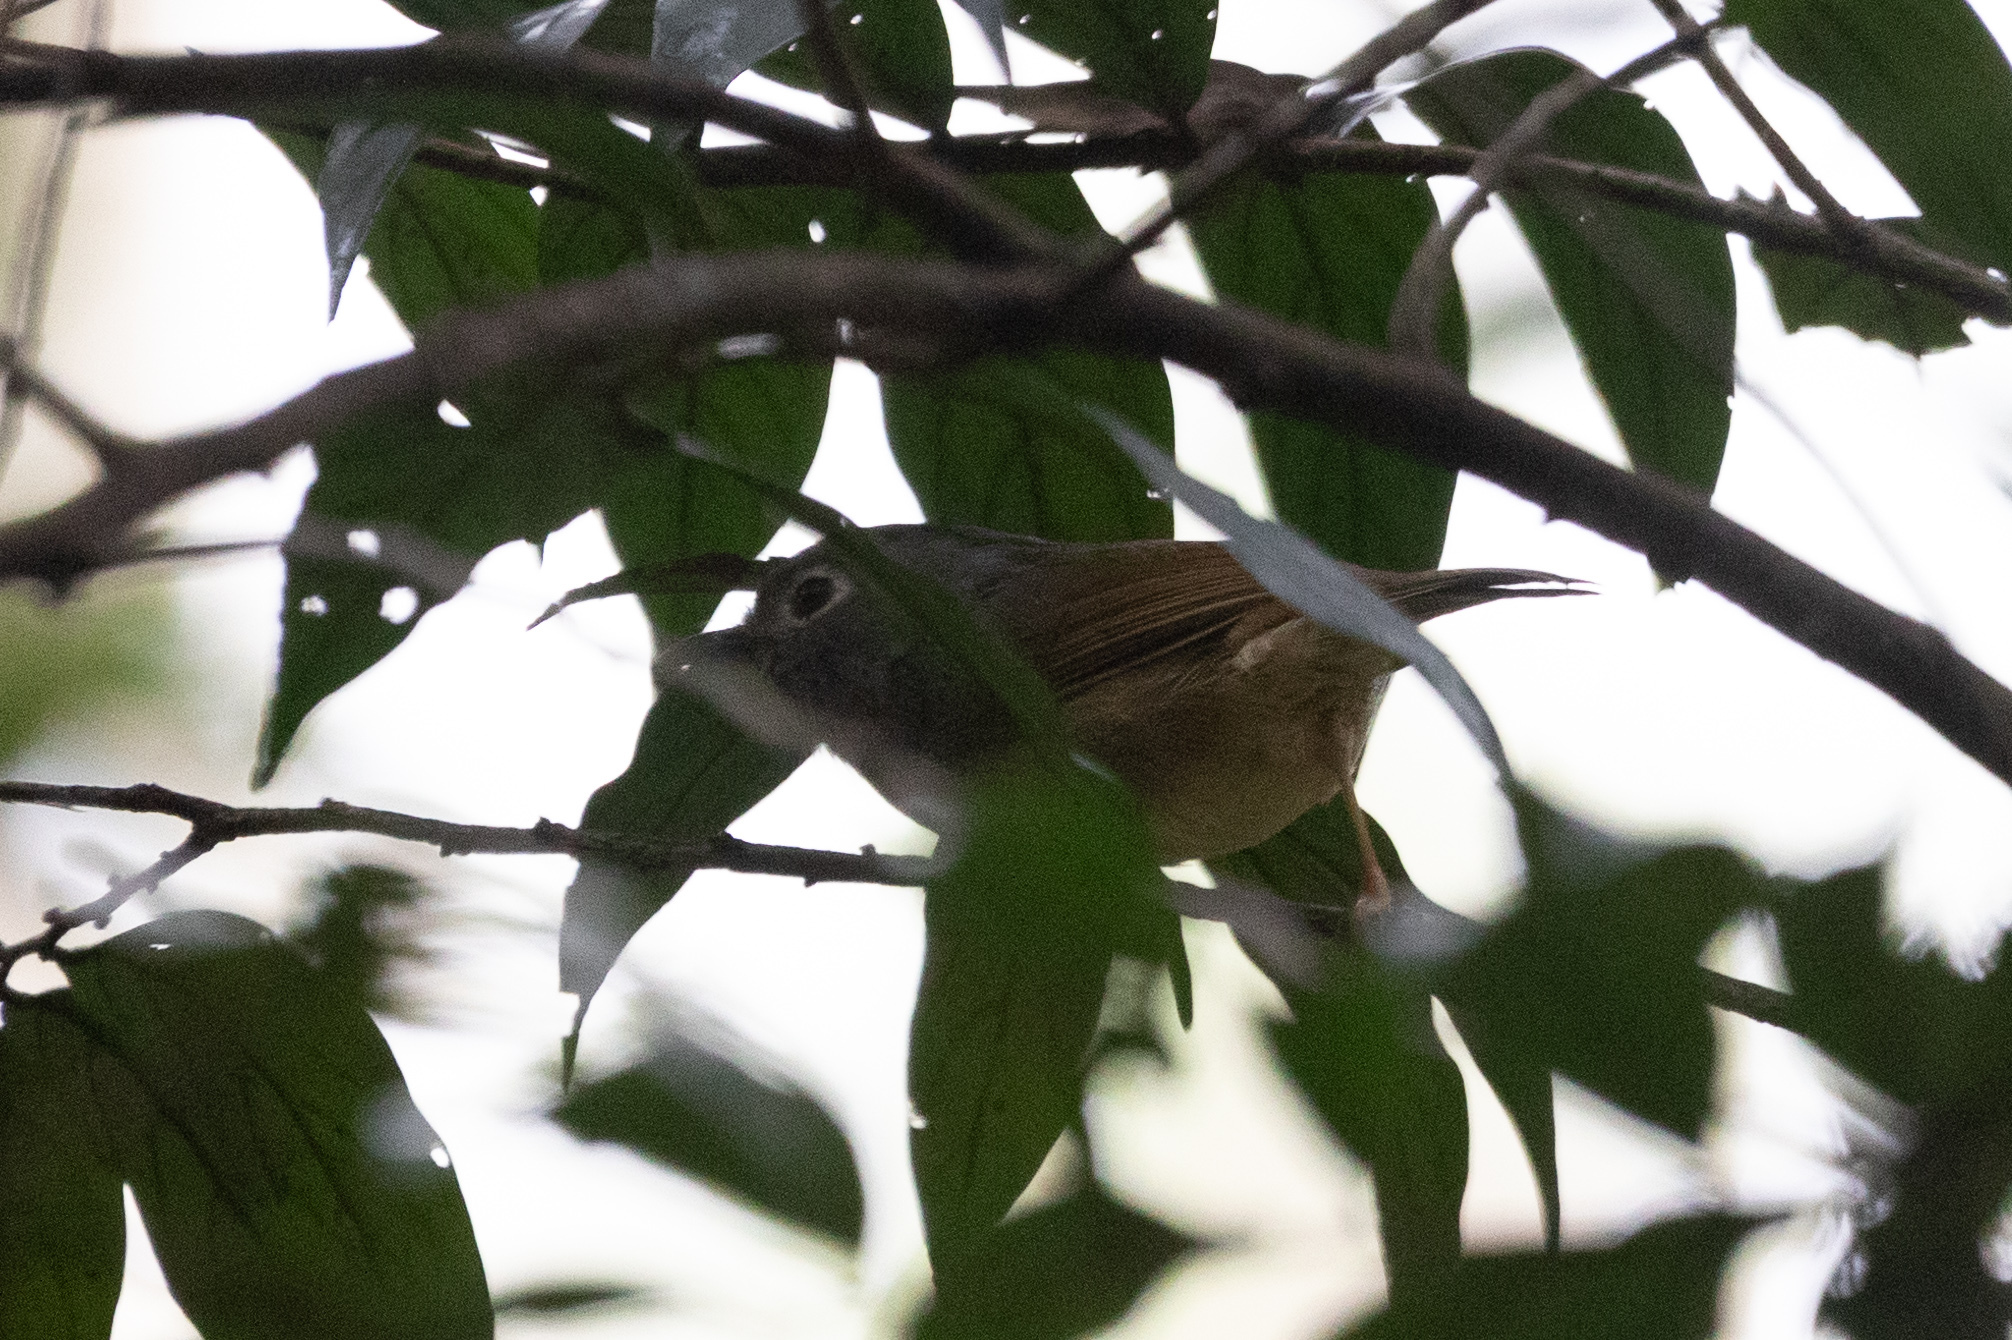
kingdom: Animalia
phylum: Chordata
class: Aves
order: Passeriformes
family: Pellorneidae
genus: Alcippe
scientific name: Alcippe hueti
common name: Huet's fulvetta
